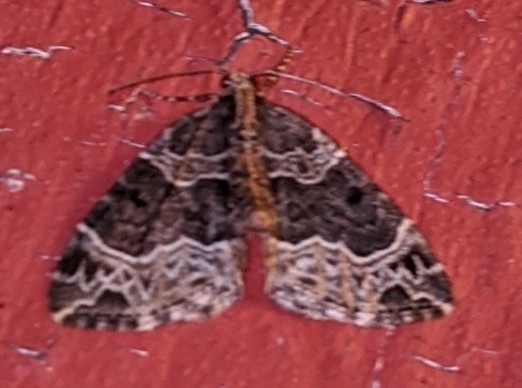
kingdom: Animalia
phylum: Arthropoda
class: Insecta
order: Lepidoptera
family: Geometridae
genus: Ecliptopera
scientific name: Ecliptopera silaceata
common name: Small phoenix
